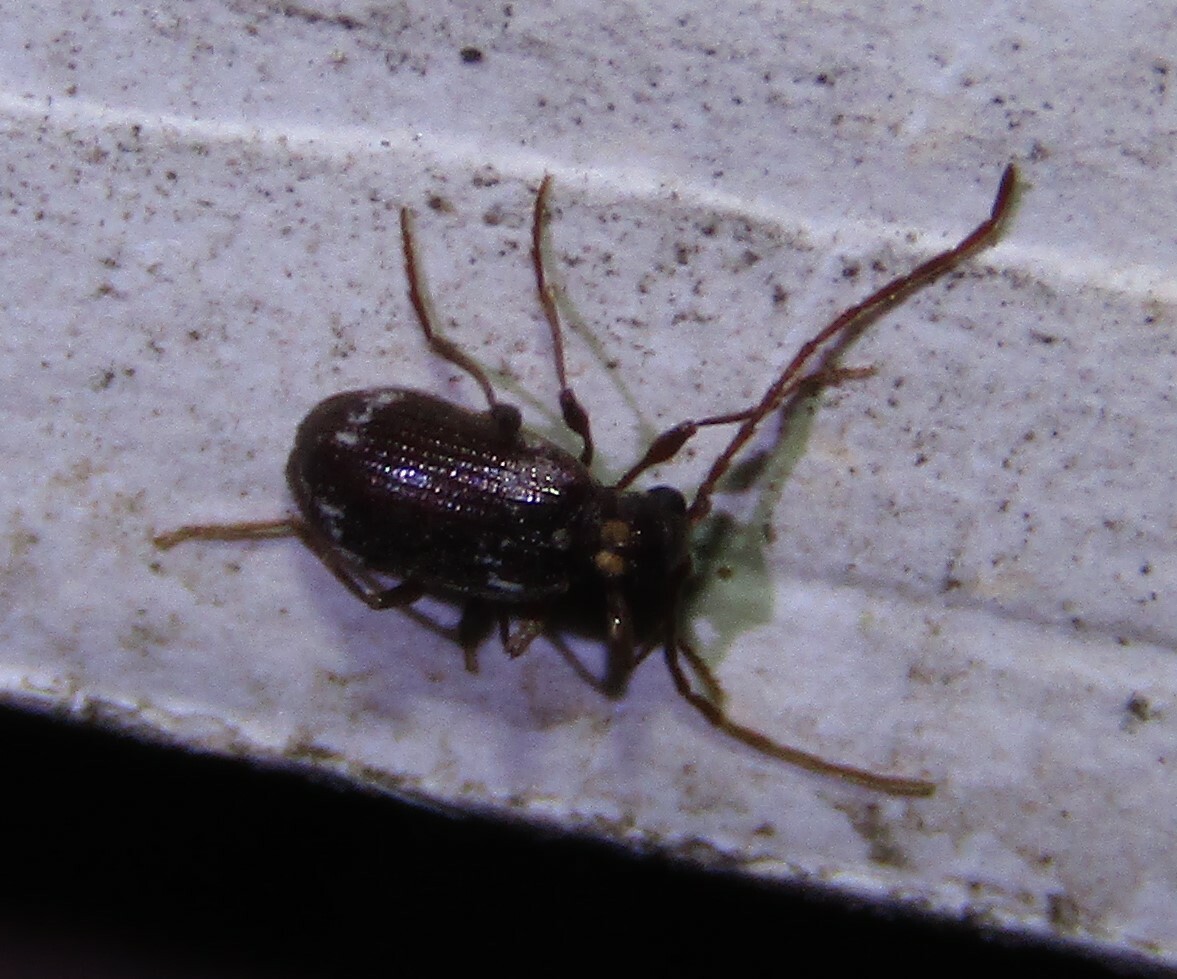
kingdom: Animalia
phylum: Arthropoda
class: Insecta
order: Coleoptera
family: Ptinidae
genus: Ptinus
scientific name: Ptinus raptor
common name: Eastern spider beetle
